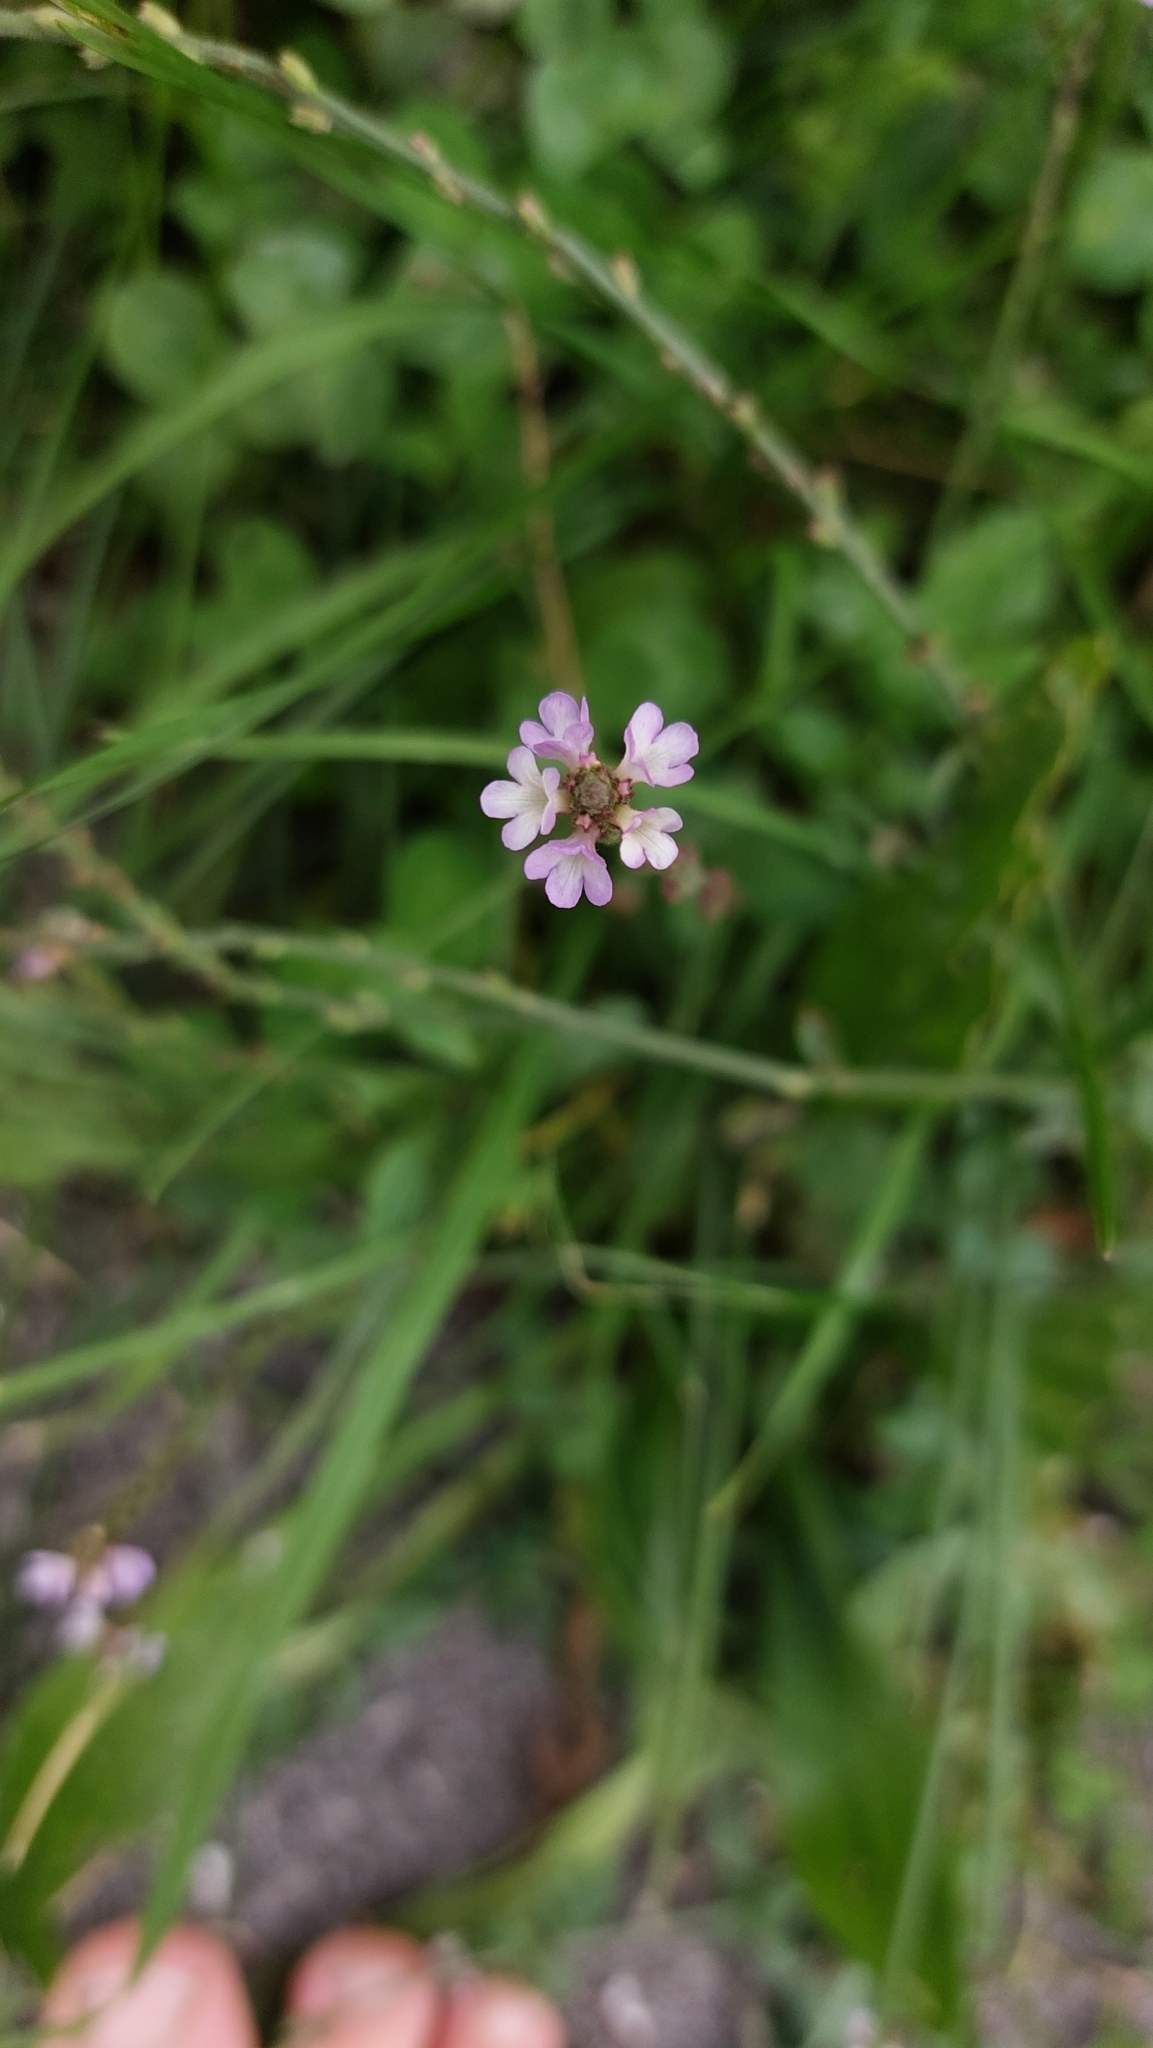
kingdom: Plantae
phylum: Tracheophyta
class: Magnoliopsida
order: Lamiales
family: Verbenaceae
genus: Verbena
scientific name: Verbena officinalis
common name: Vervain
